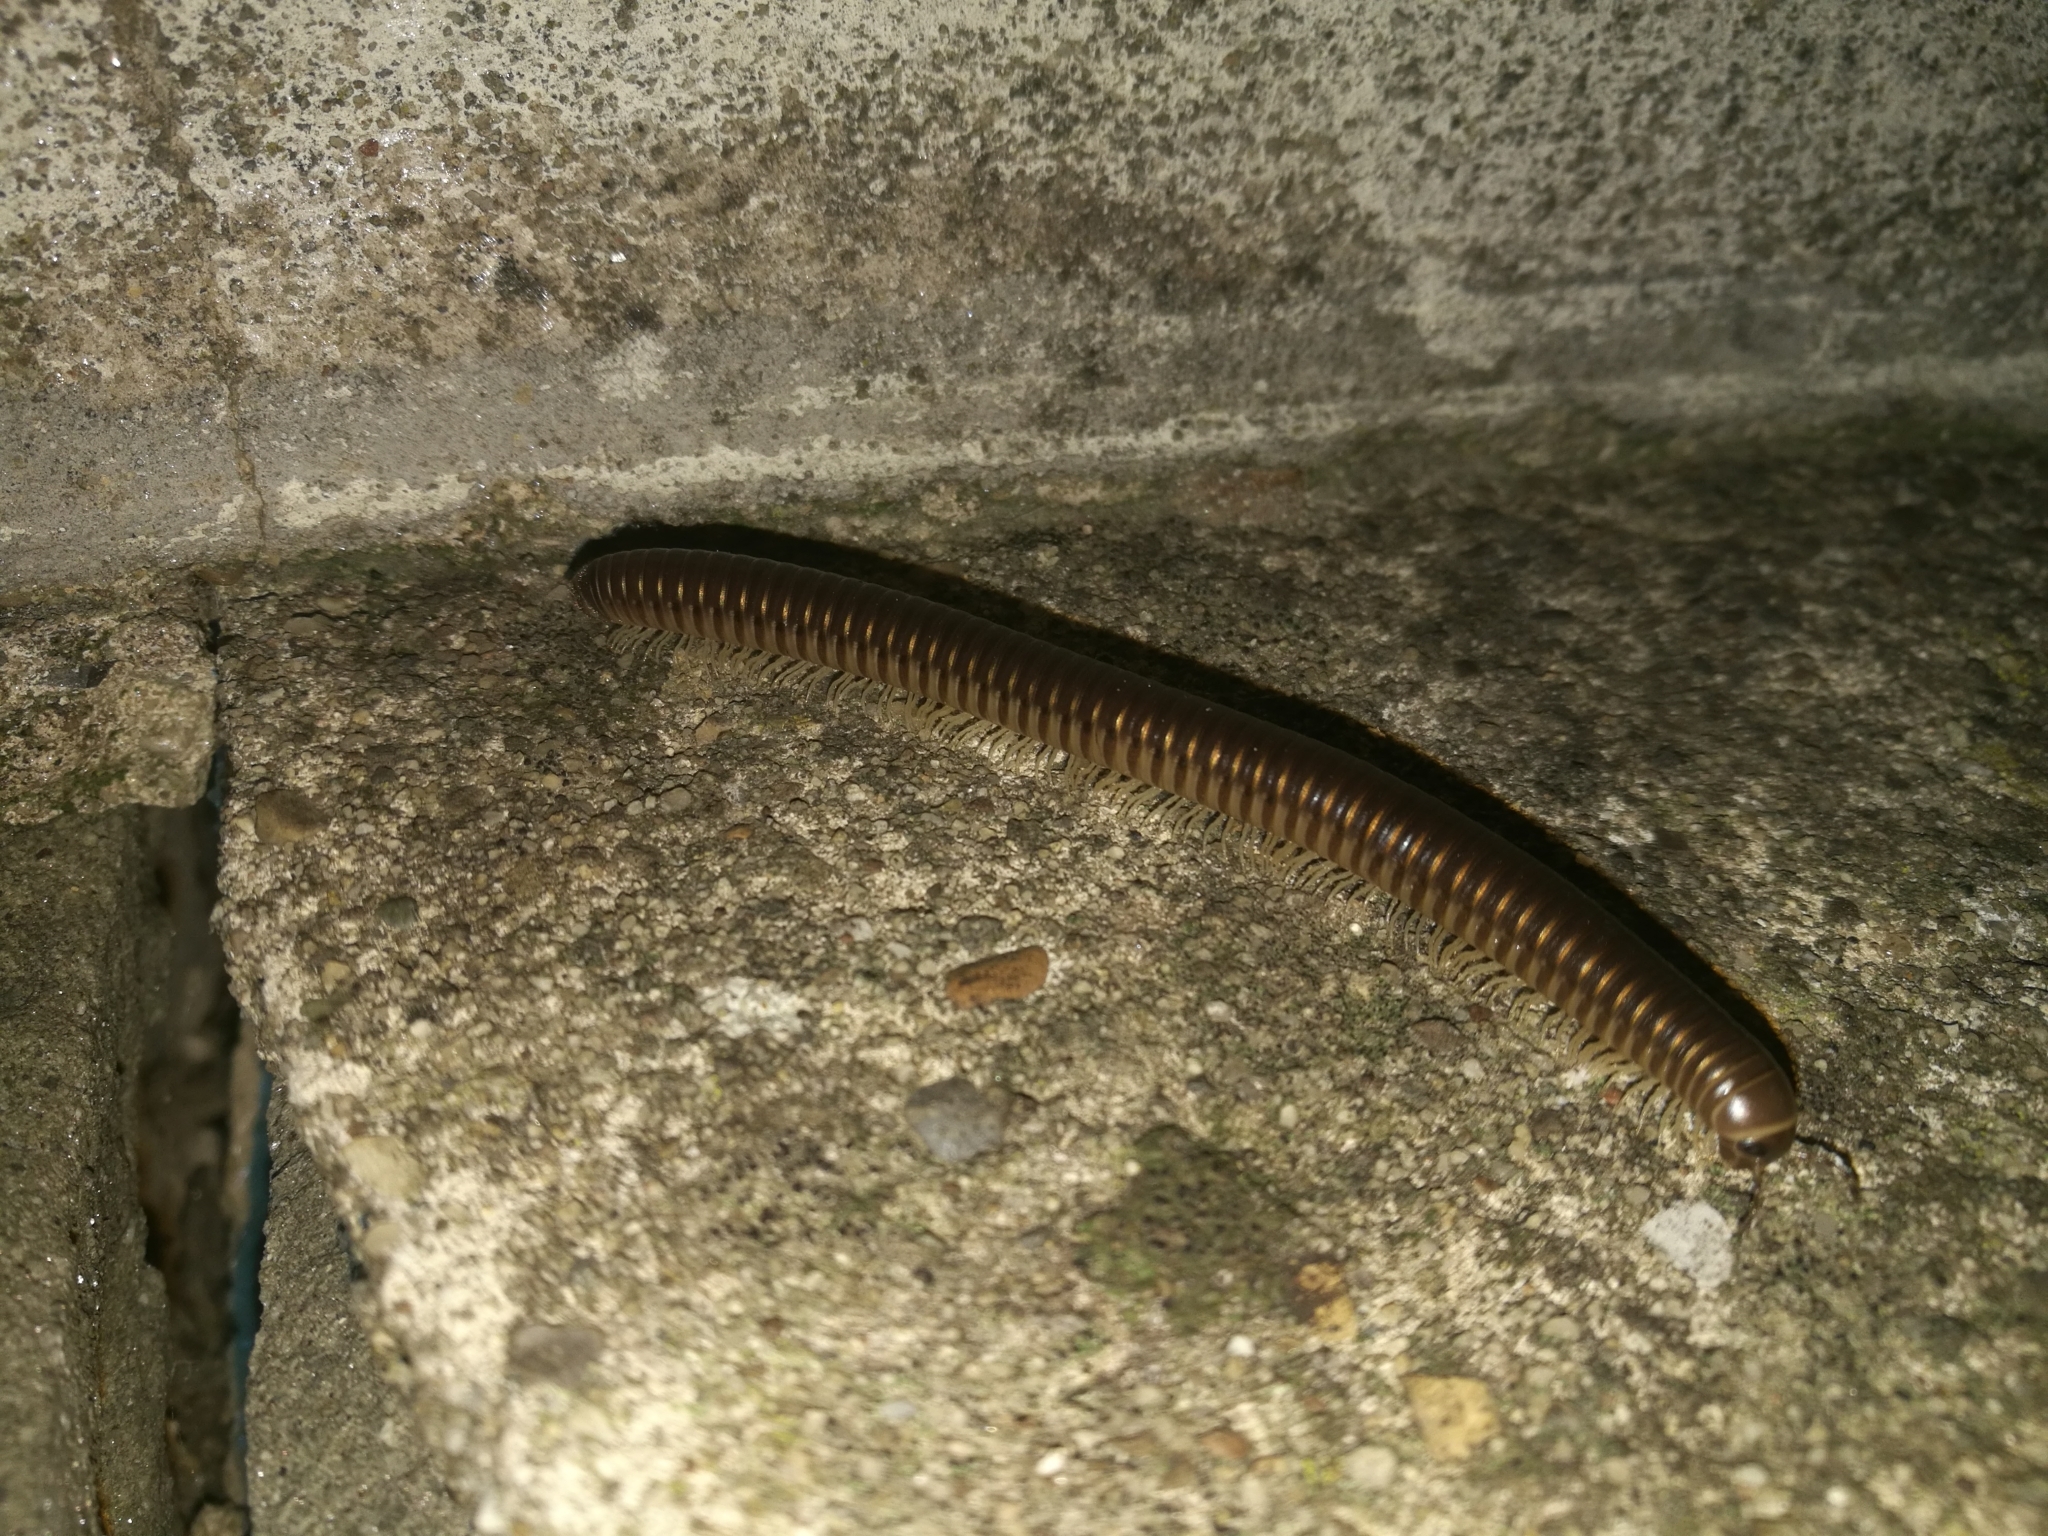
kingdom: Animalia
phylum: Arthropoda
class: Diplopoda
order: Julida
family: Julidae
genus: Pachyiulus
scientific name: Pachyiulus flavipes
